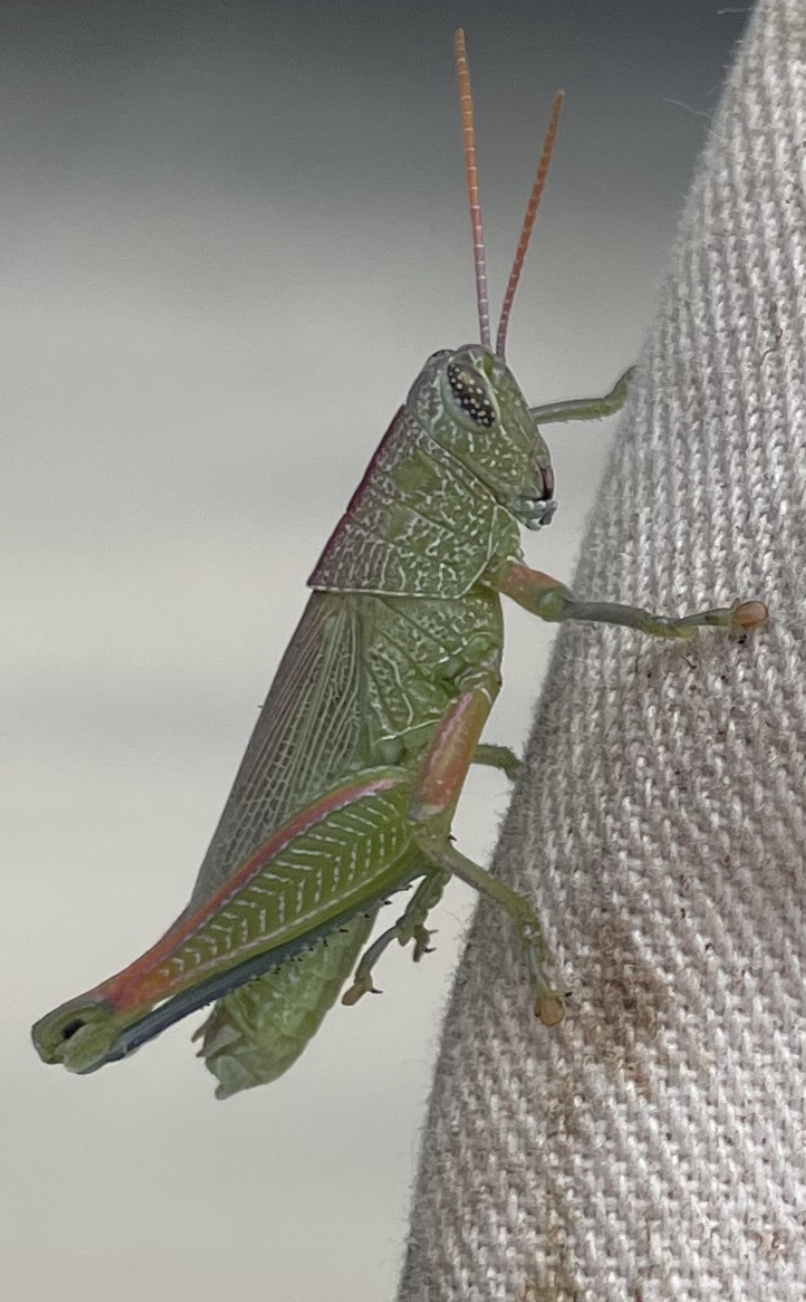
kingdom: Animalia
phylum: Arthropoda
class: Insecta
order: Orthoptera
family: Acrididae
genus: Hesperotettix
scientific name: Hesperotettix speciosus
